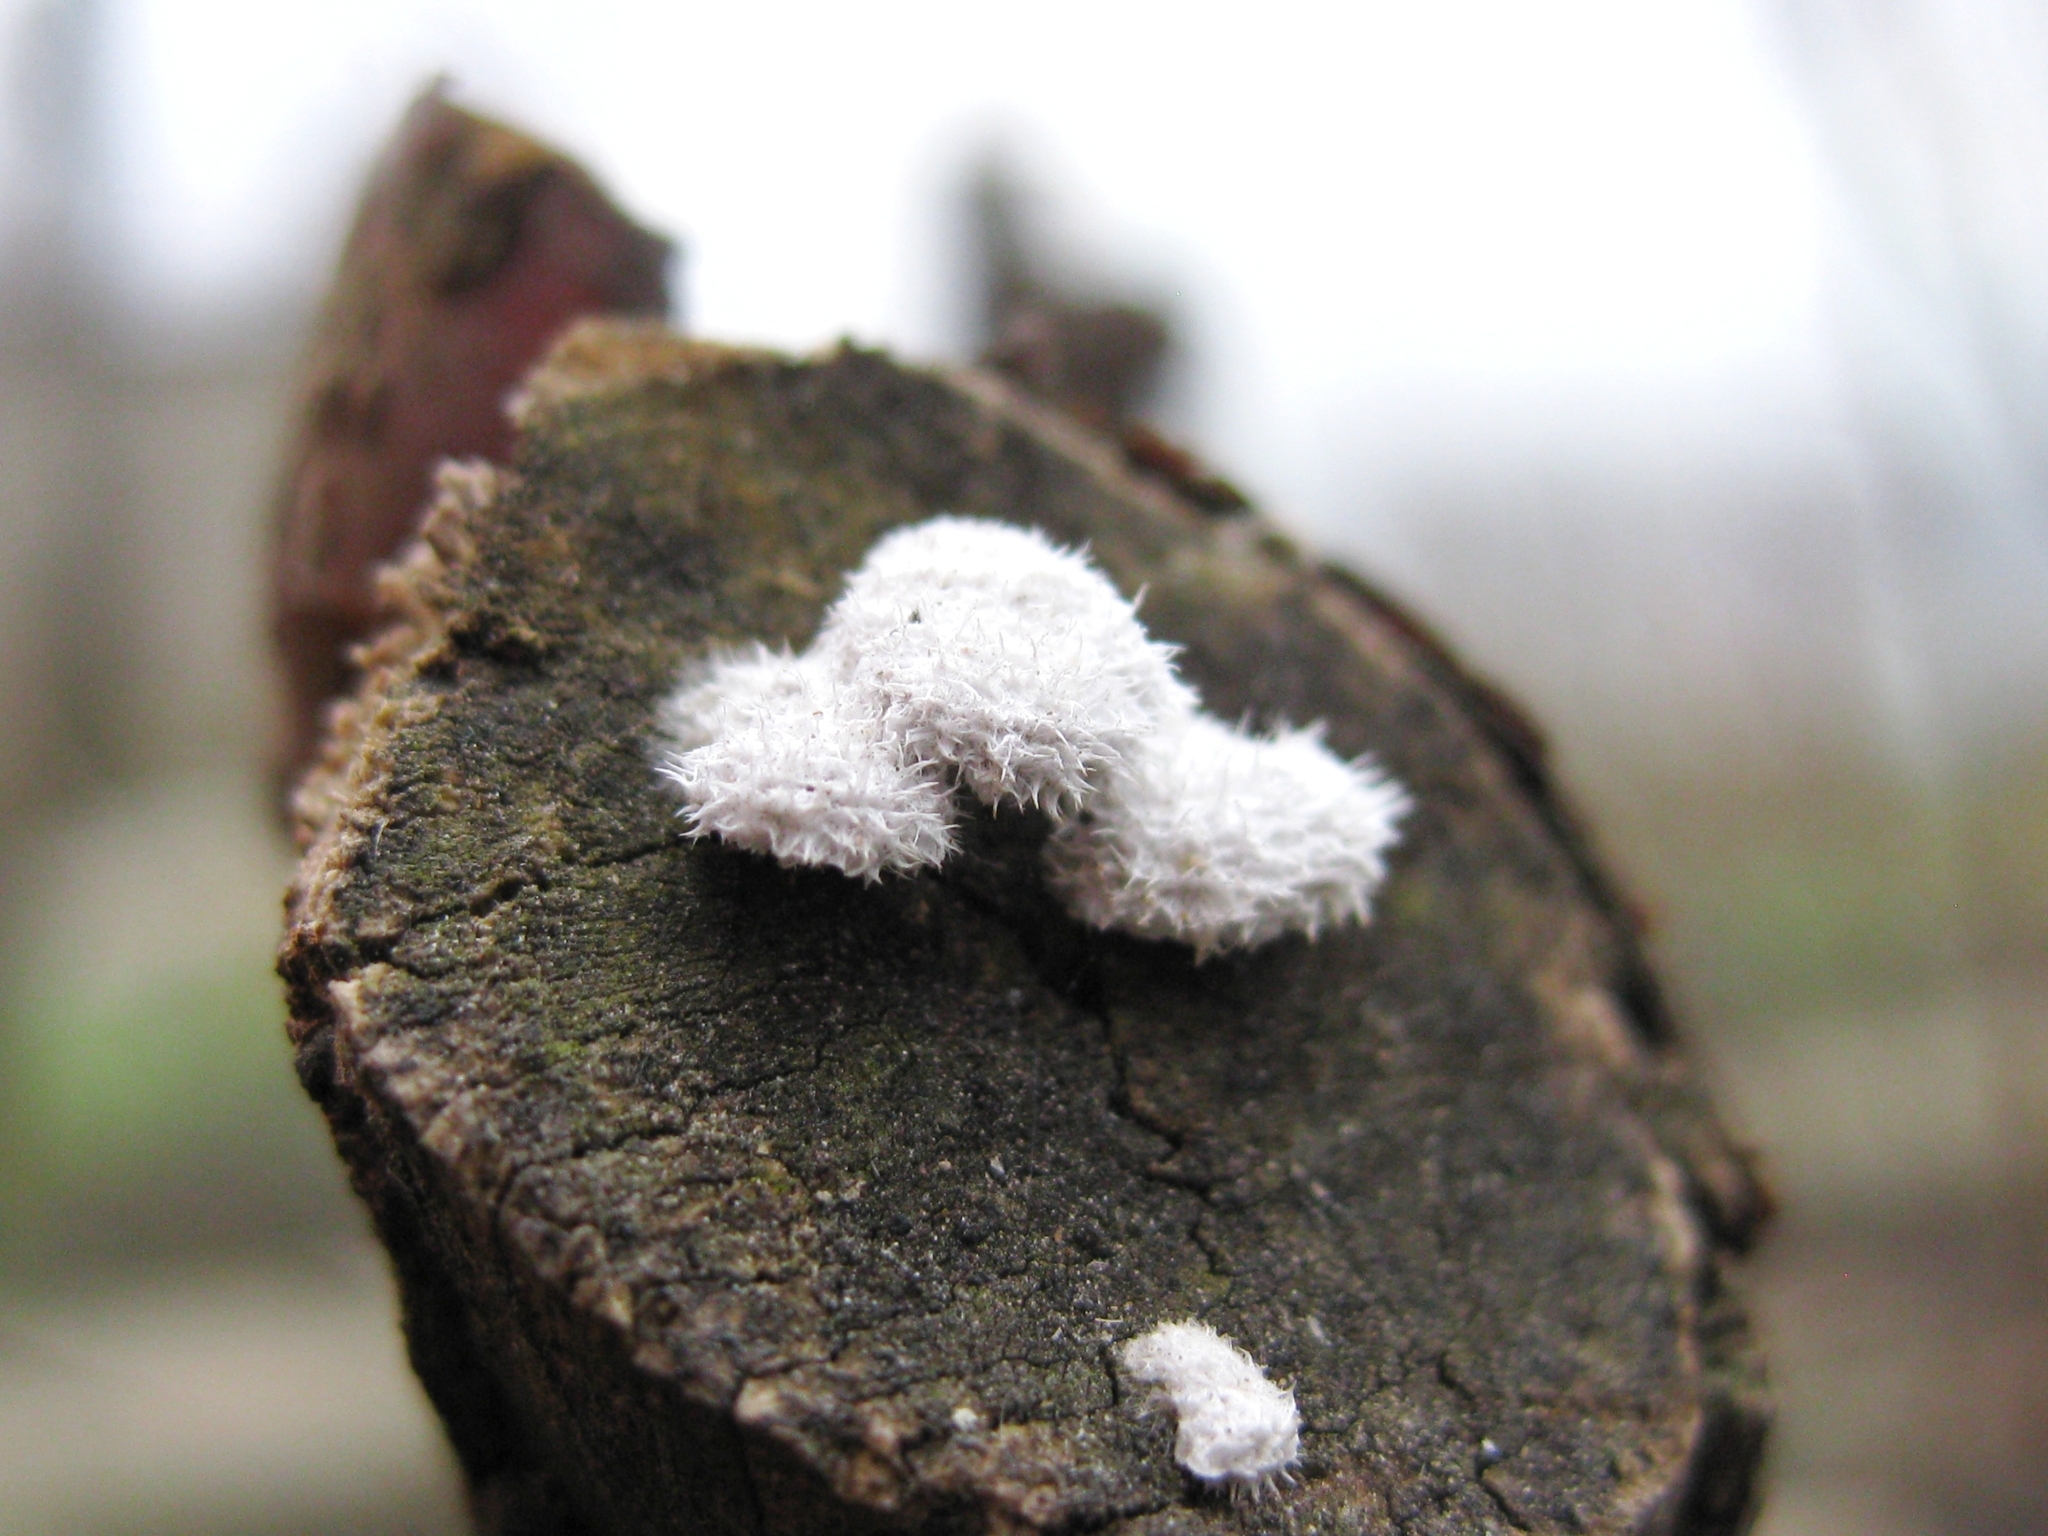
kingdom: Fungi
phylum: Basidiomycota
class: Agaricomycetes
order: Agaricales
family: Schizophyllaceae
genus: Schizophyllum
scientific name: Schizophyllum commune
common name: Common porecrust
